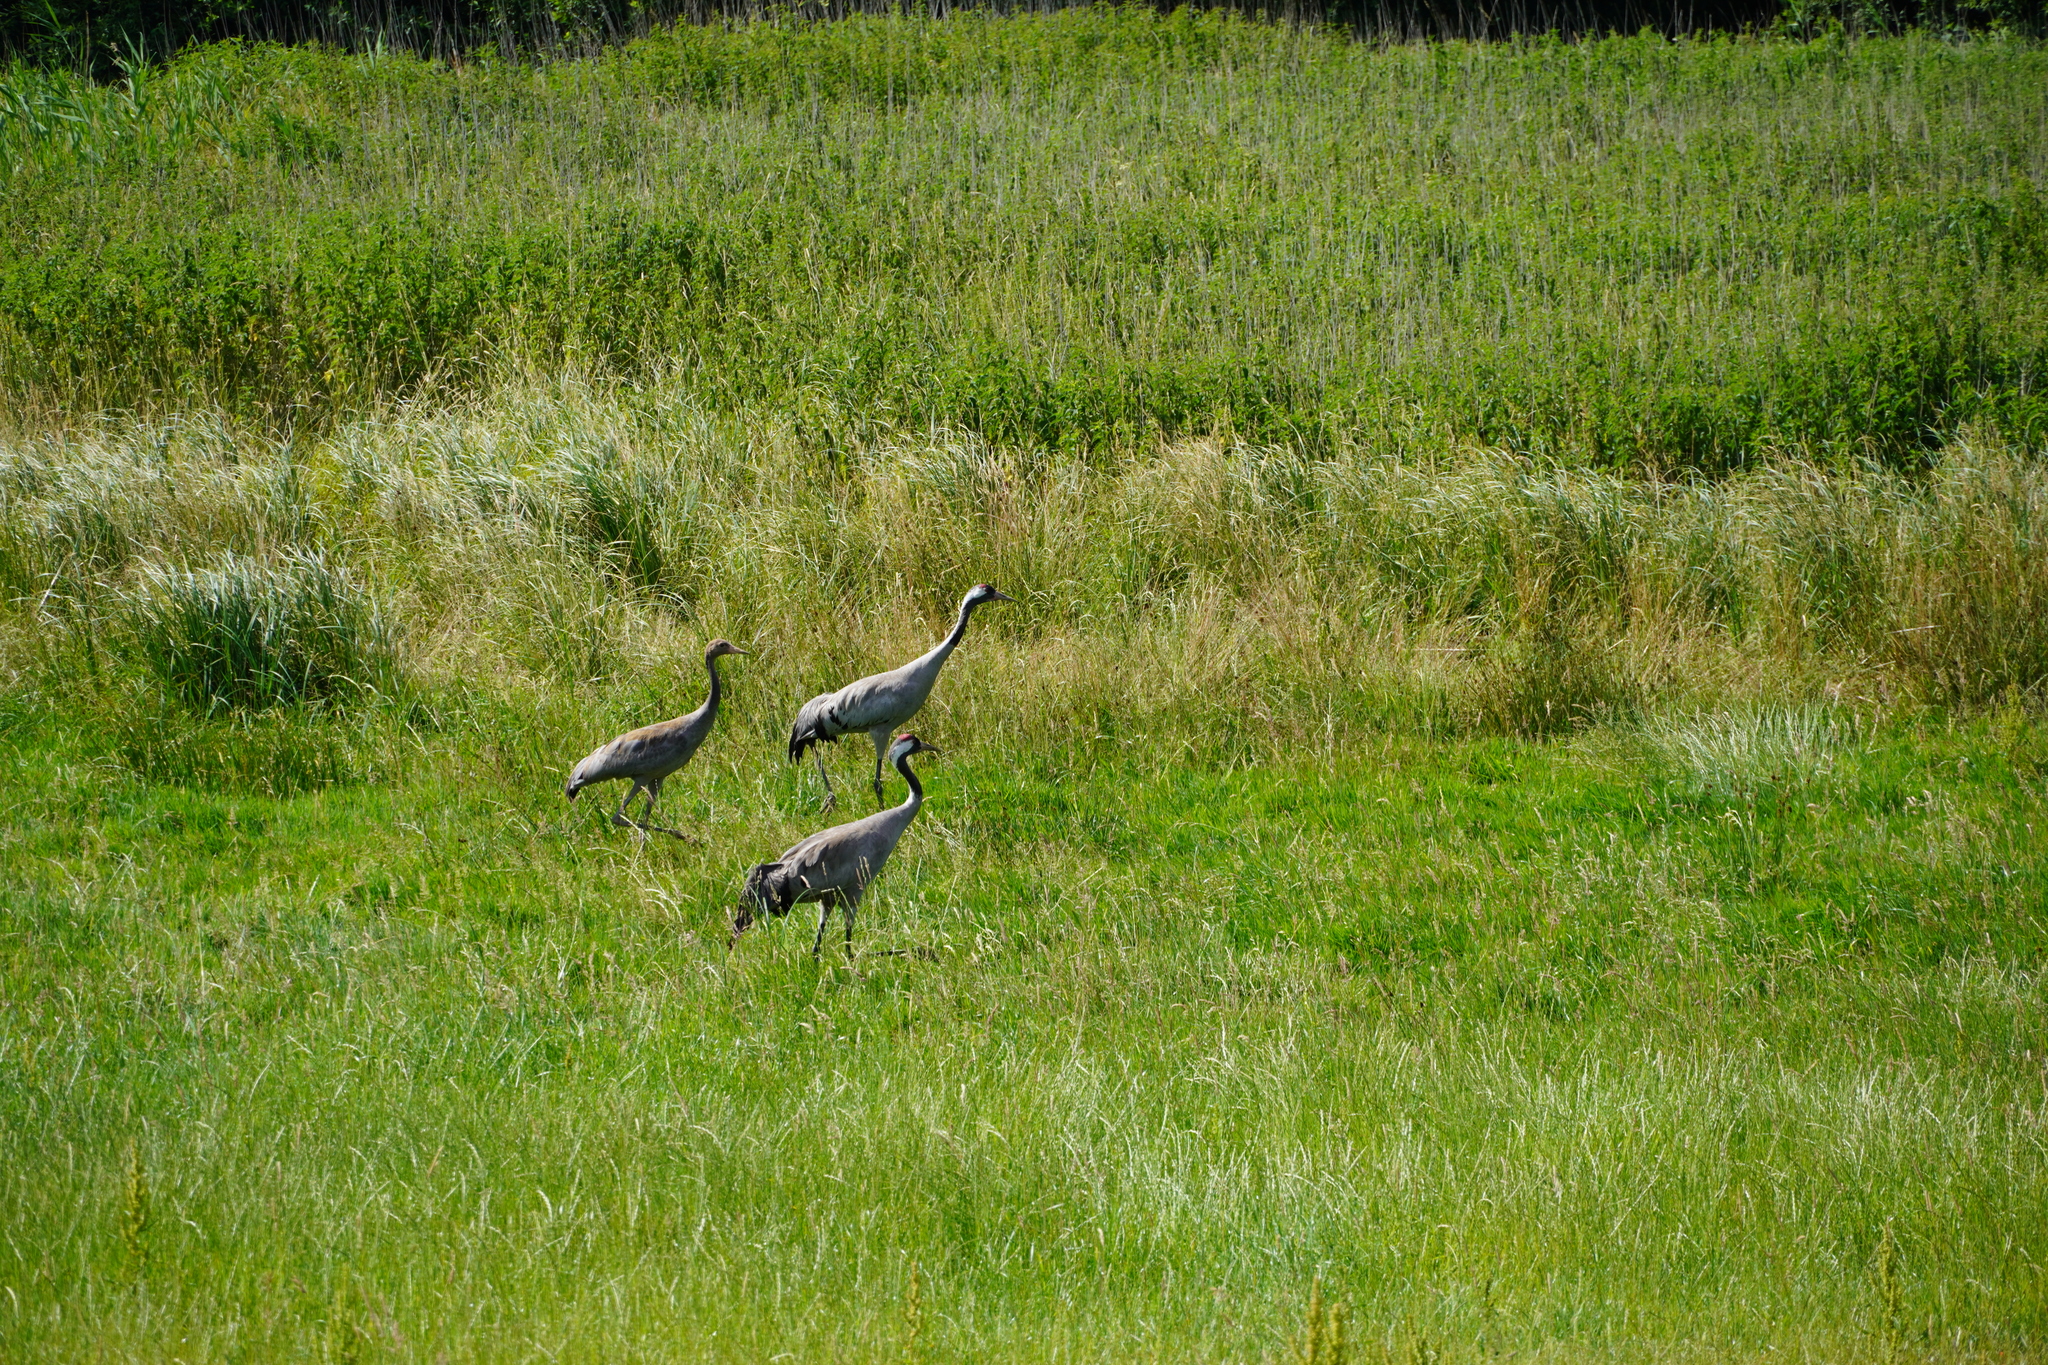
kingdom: Animalia
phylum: Chordata
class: Aves
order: Gruiformes
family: Gruidae
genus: Grus
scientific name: Grus grus
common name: Common crane
